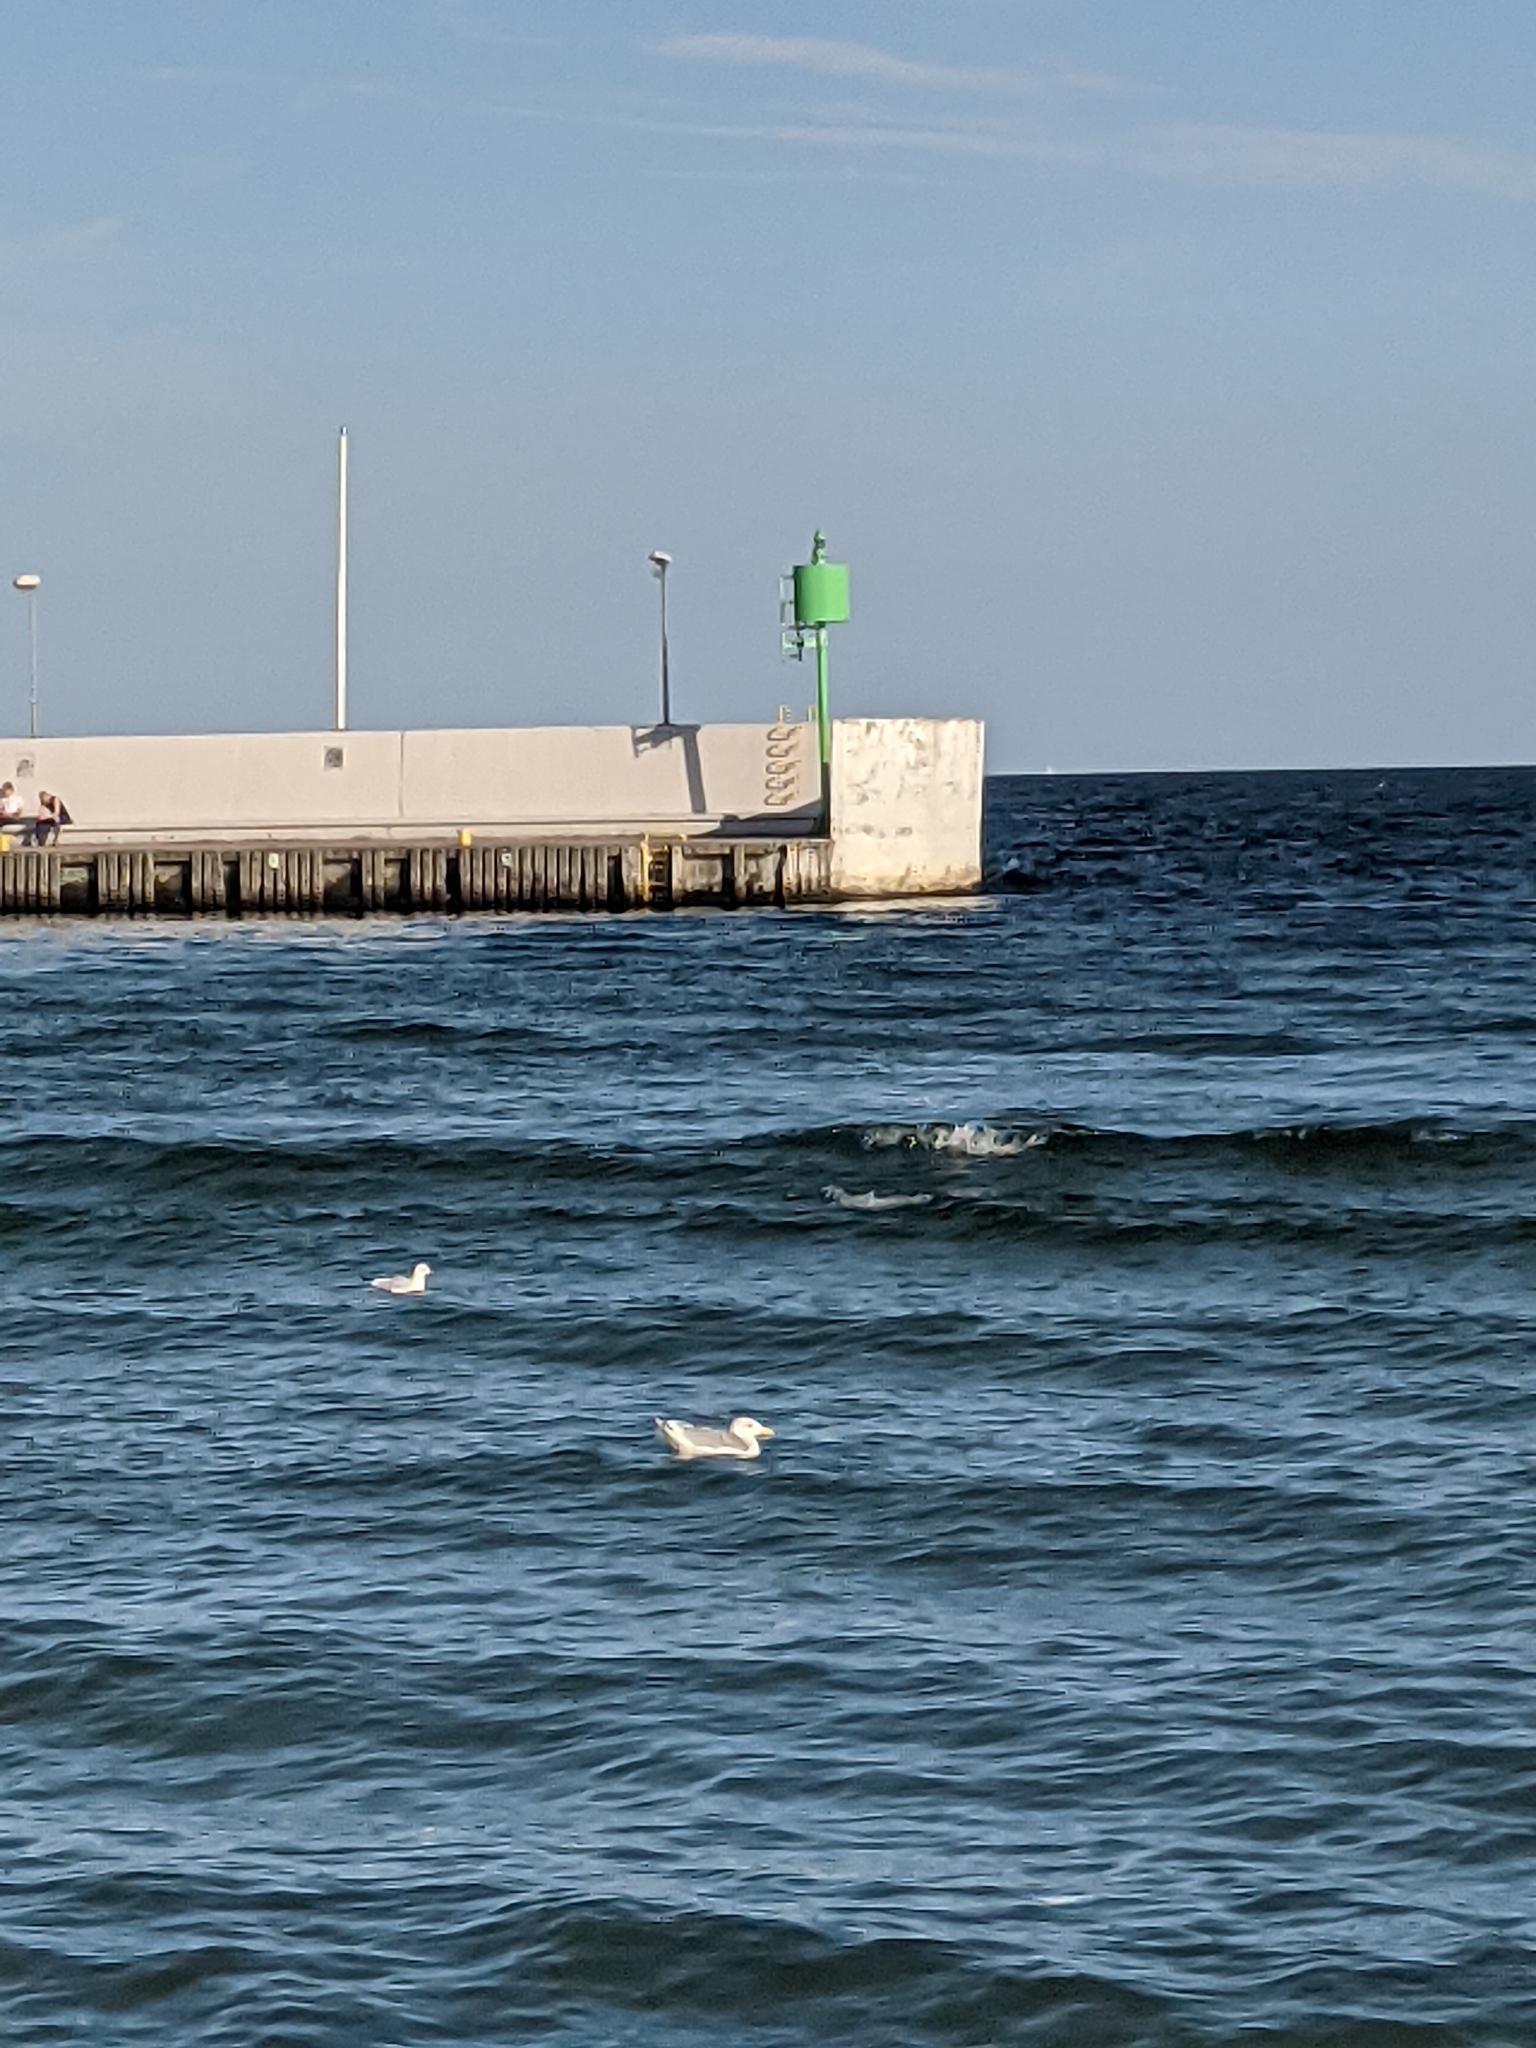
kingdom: Animalia
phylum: Chordata
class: Aves
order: Charadriiformes
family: Laridae
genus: Larus
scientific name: Larus argentatus
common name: Herring gull
